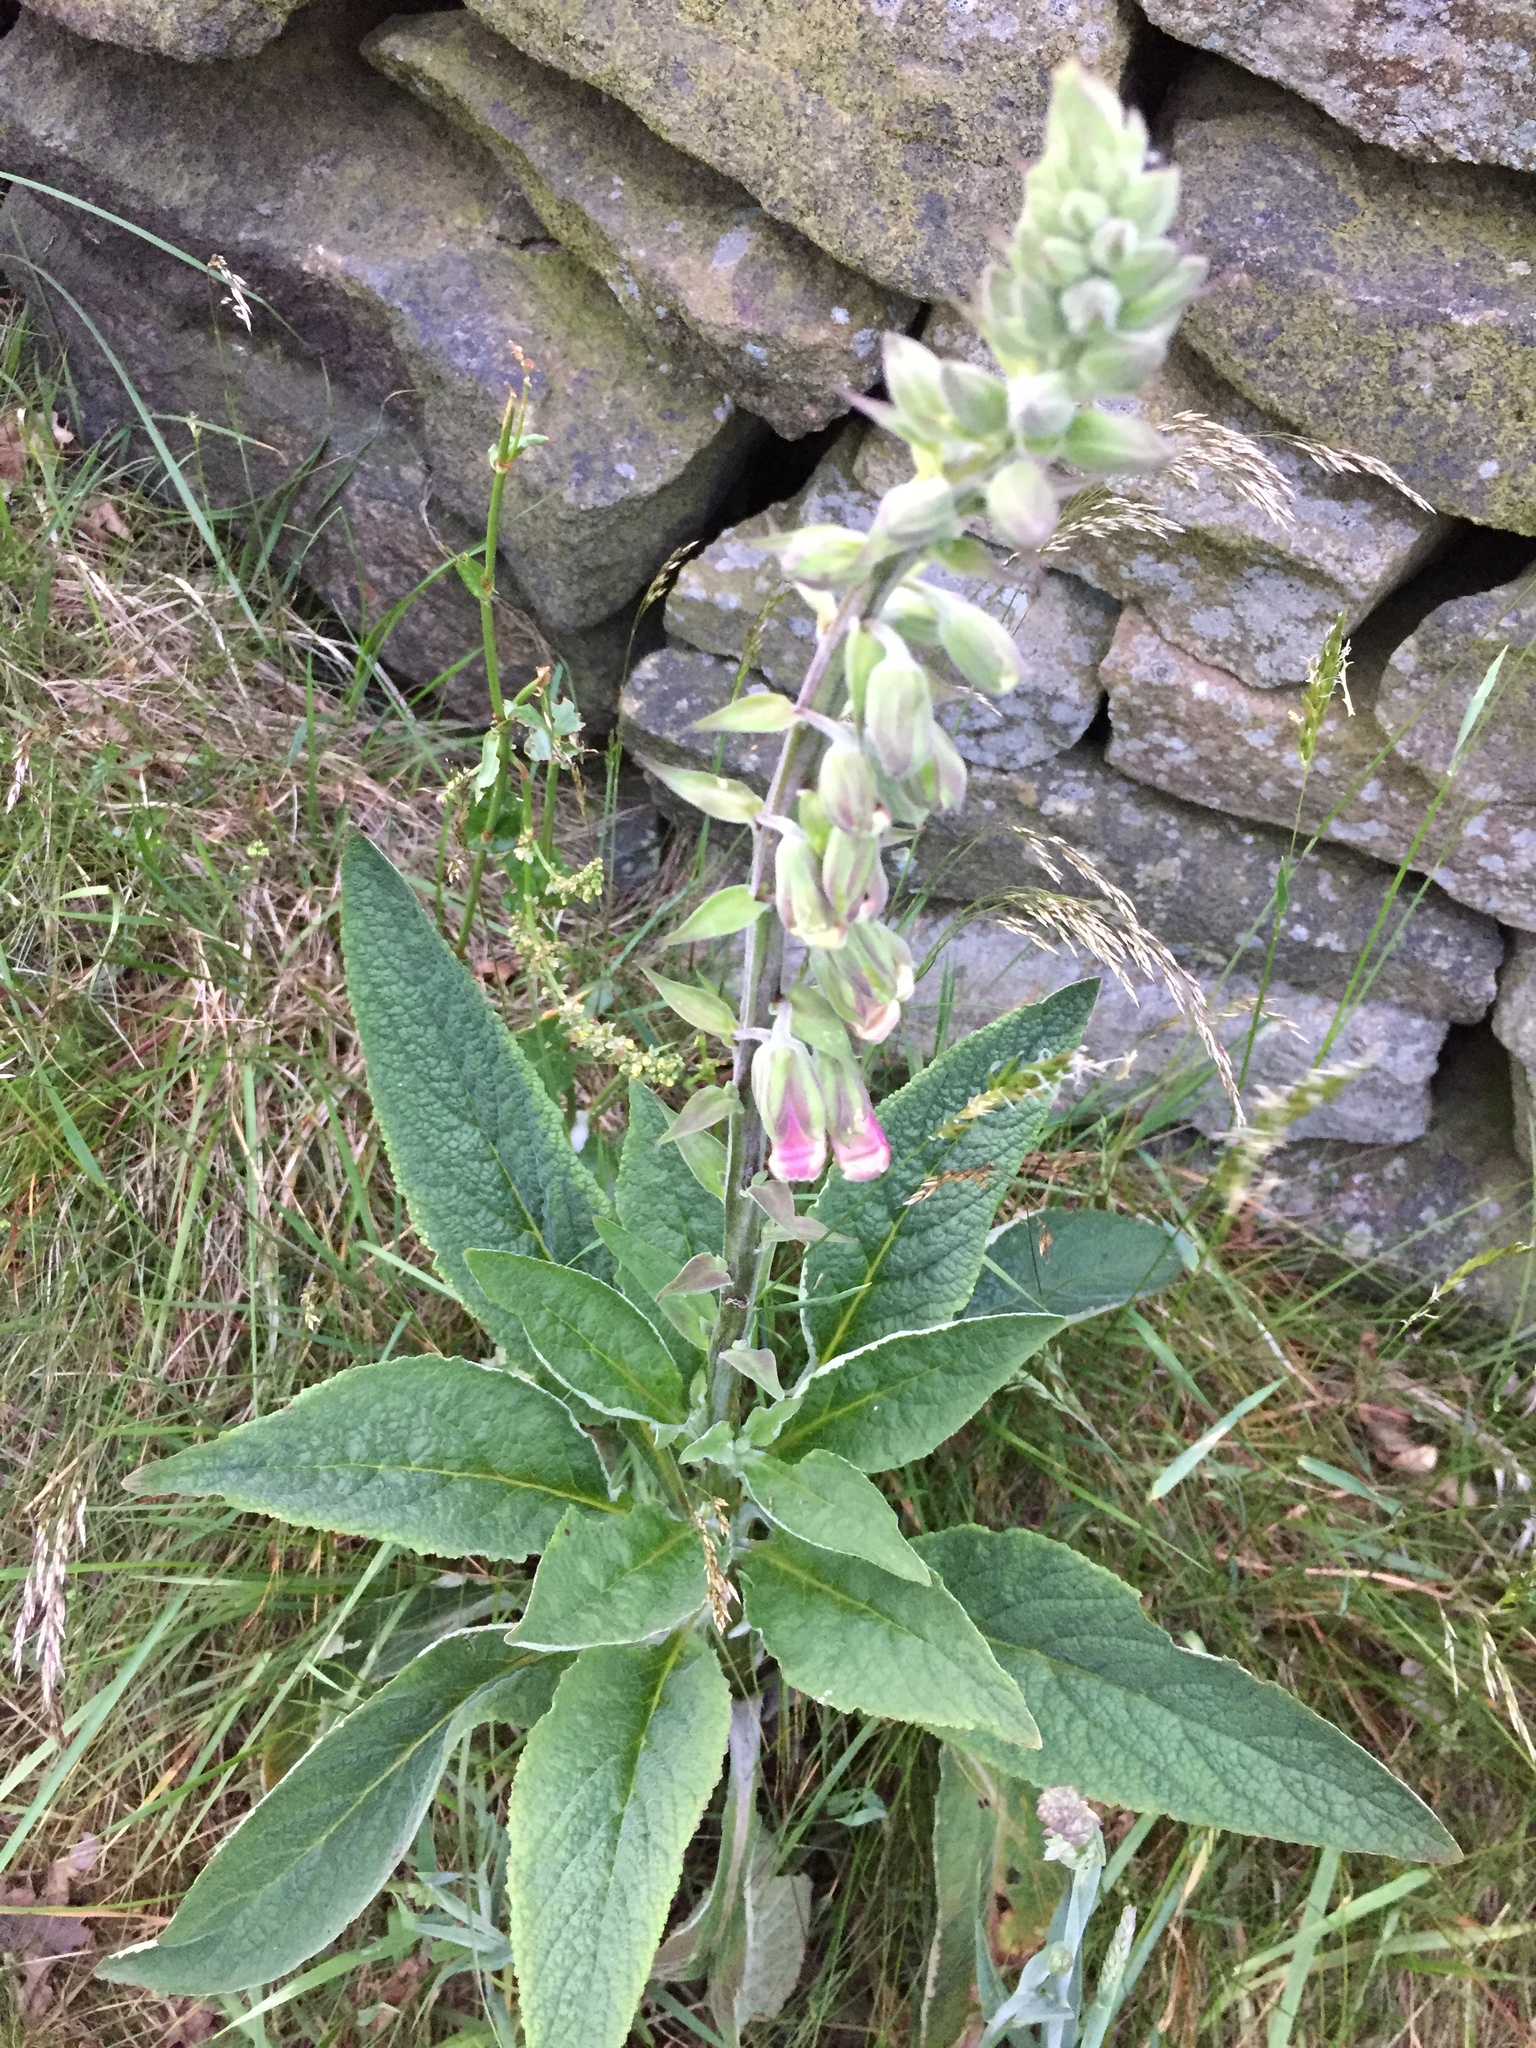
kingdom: Plantae
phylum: Tracheophyta
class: Magnoliopsida
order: Lamiales
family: Plantaginaceae
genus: Digitalis
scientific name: Digitalis purpurea
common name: Foxglove
